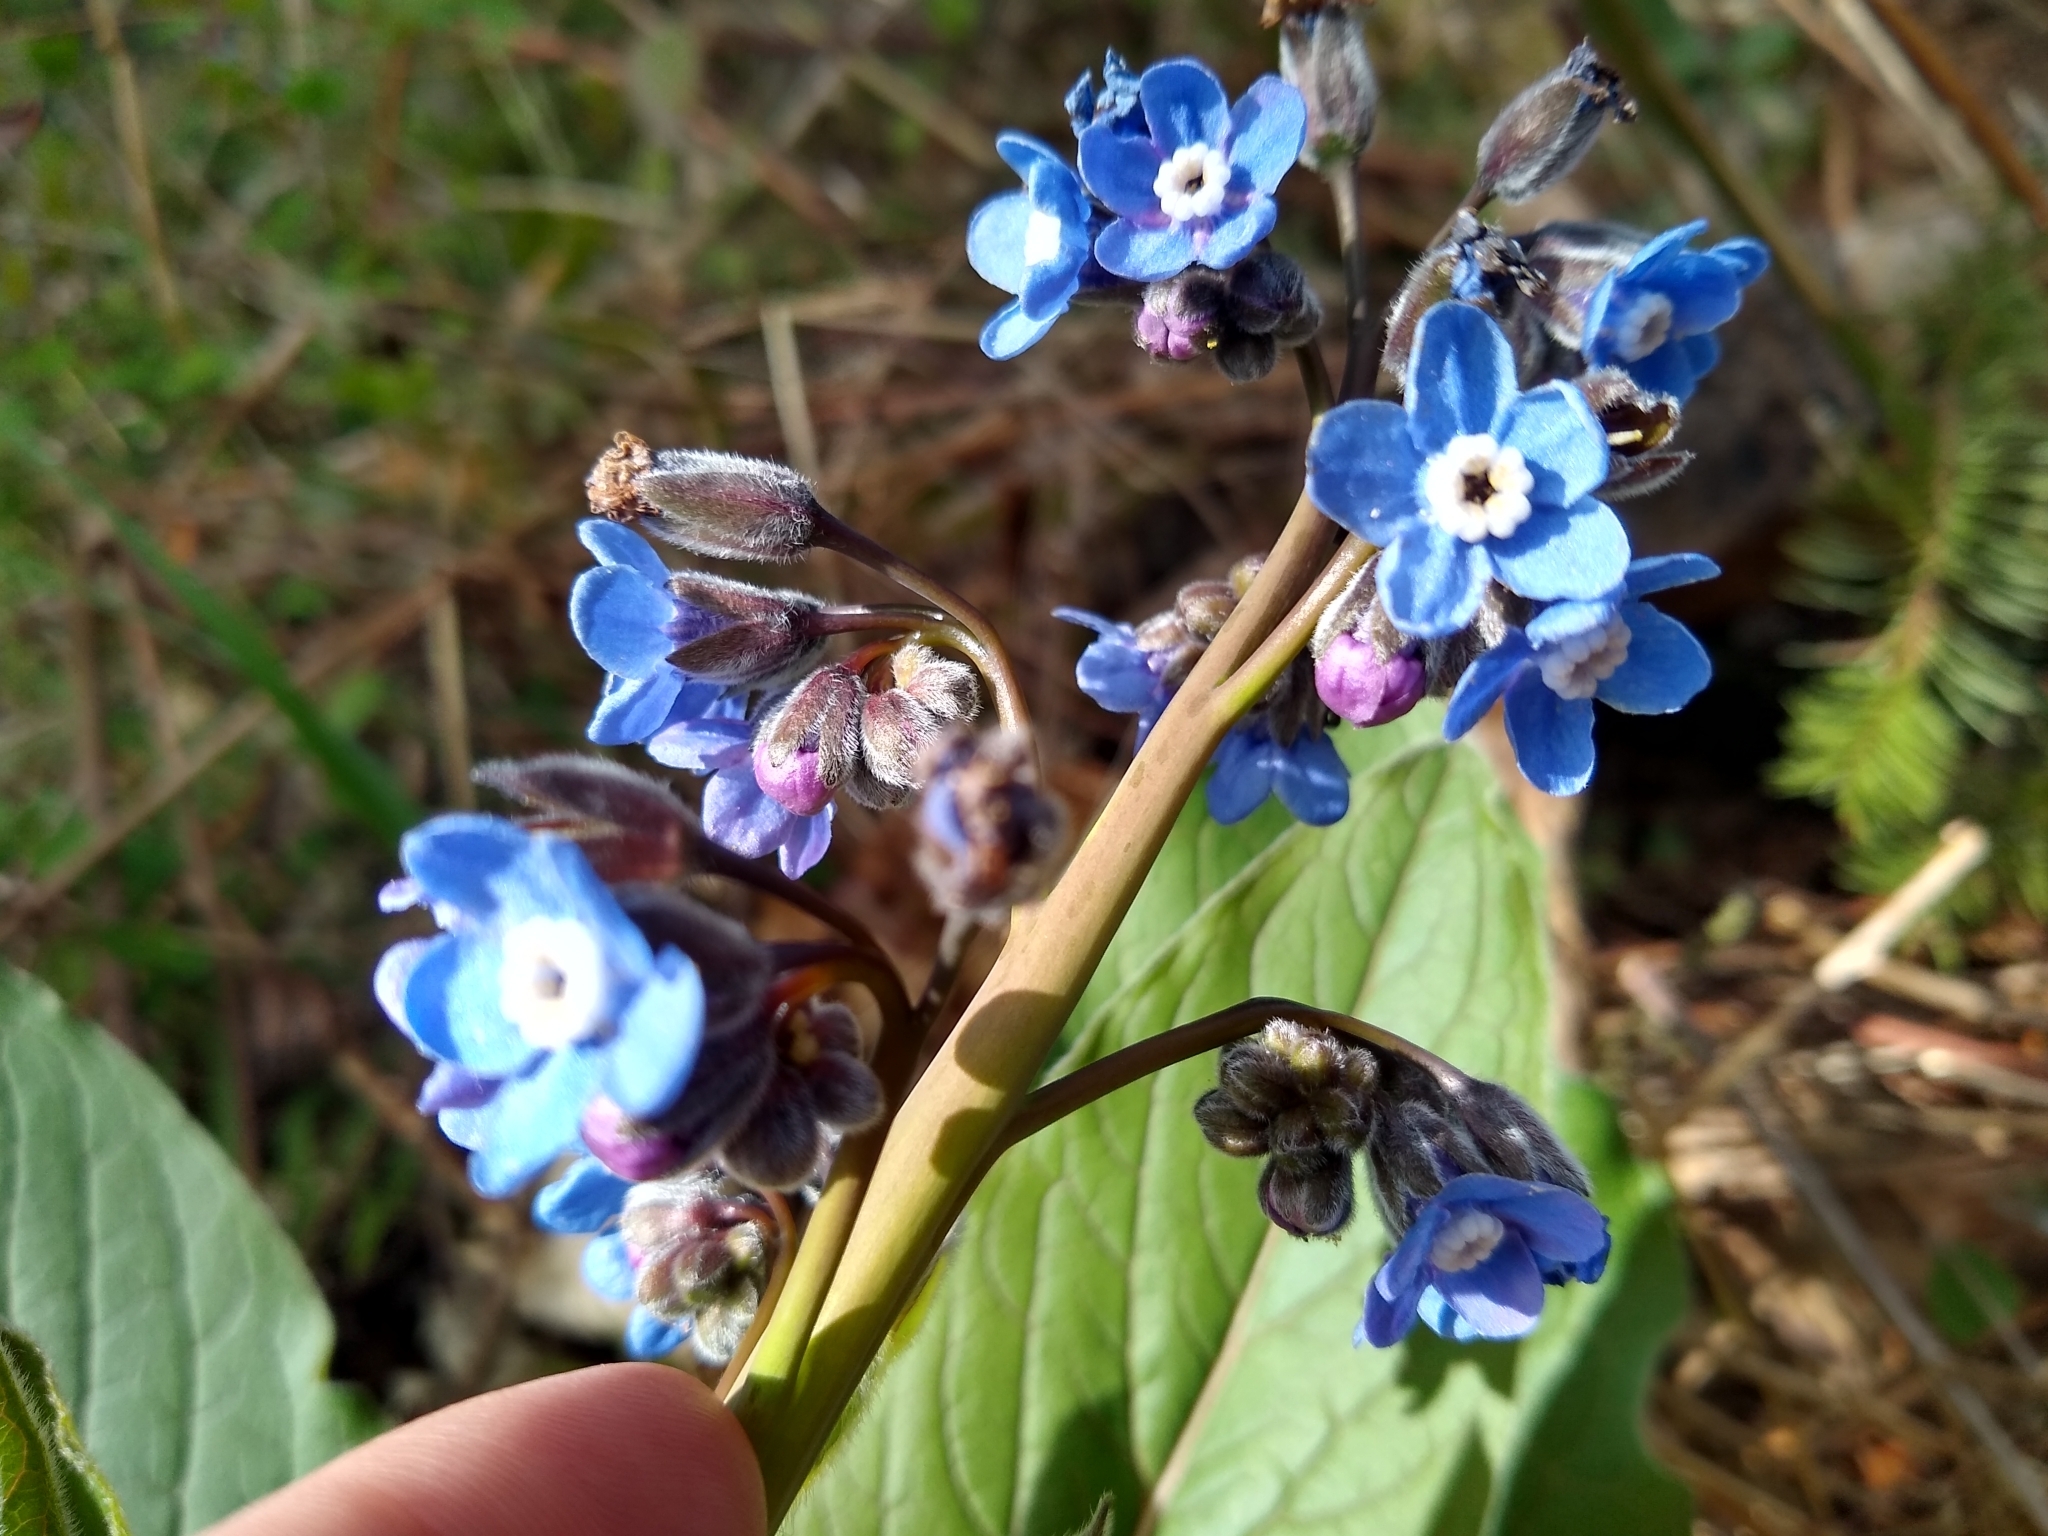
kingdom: Plantae
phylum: Tracheophyta
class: Magnoliopsida
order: Boraginales
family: Boraginaceae
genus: Adelinia
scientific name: Adelinia grande
